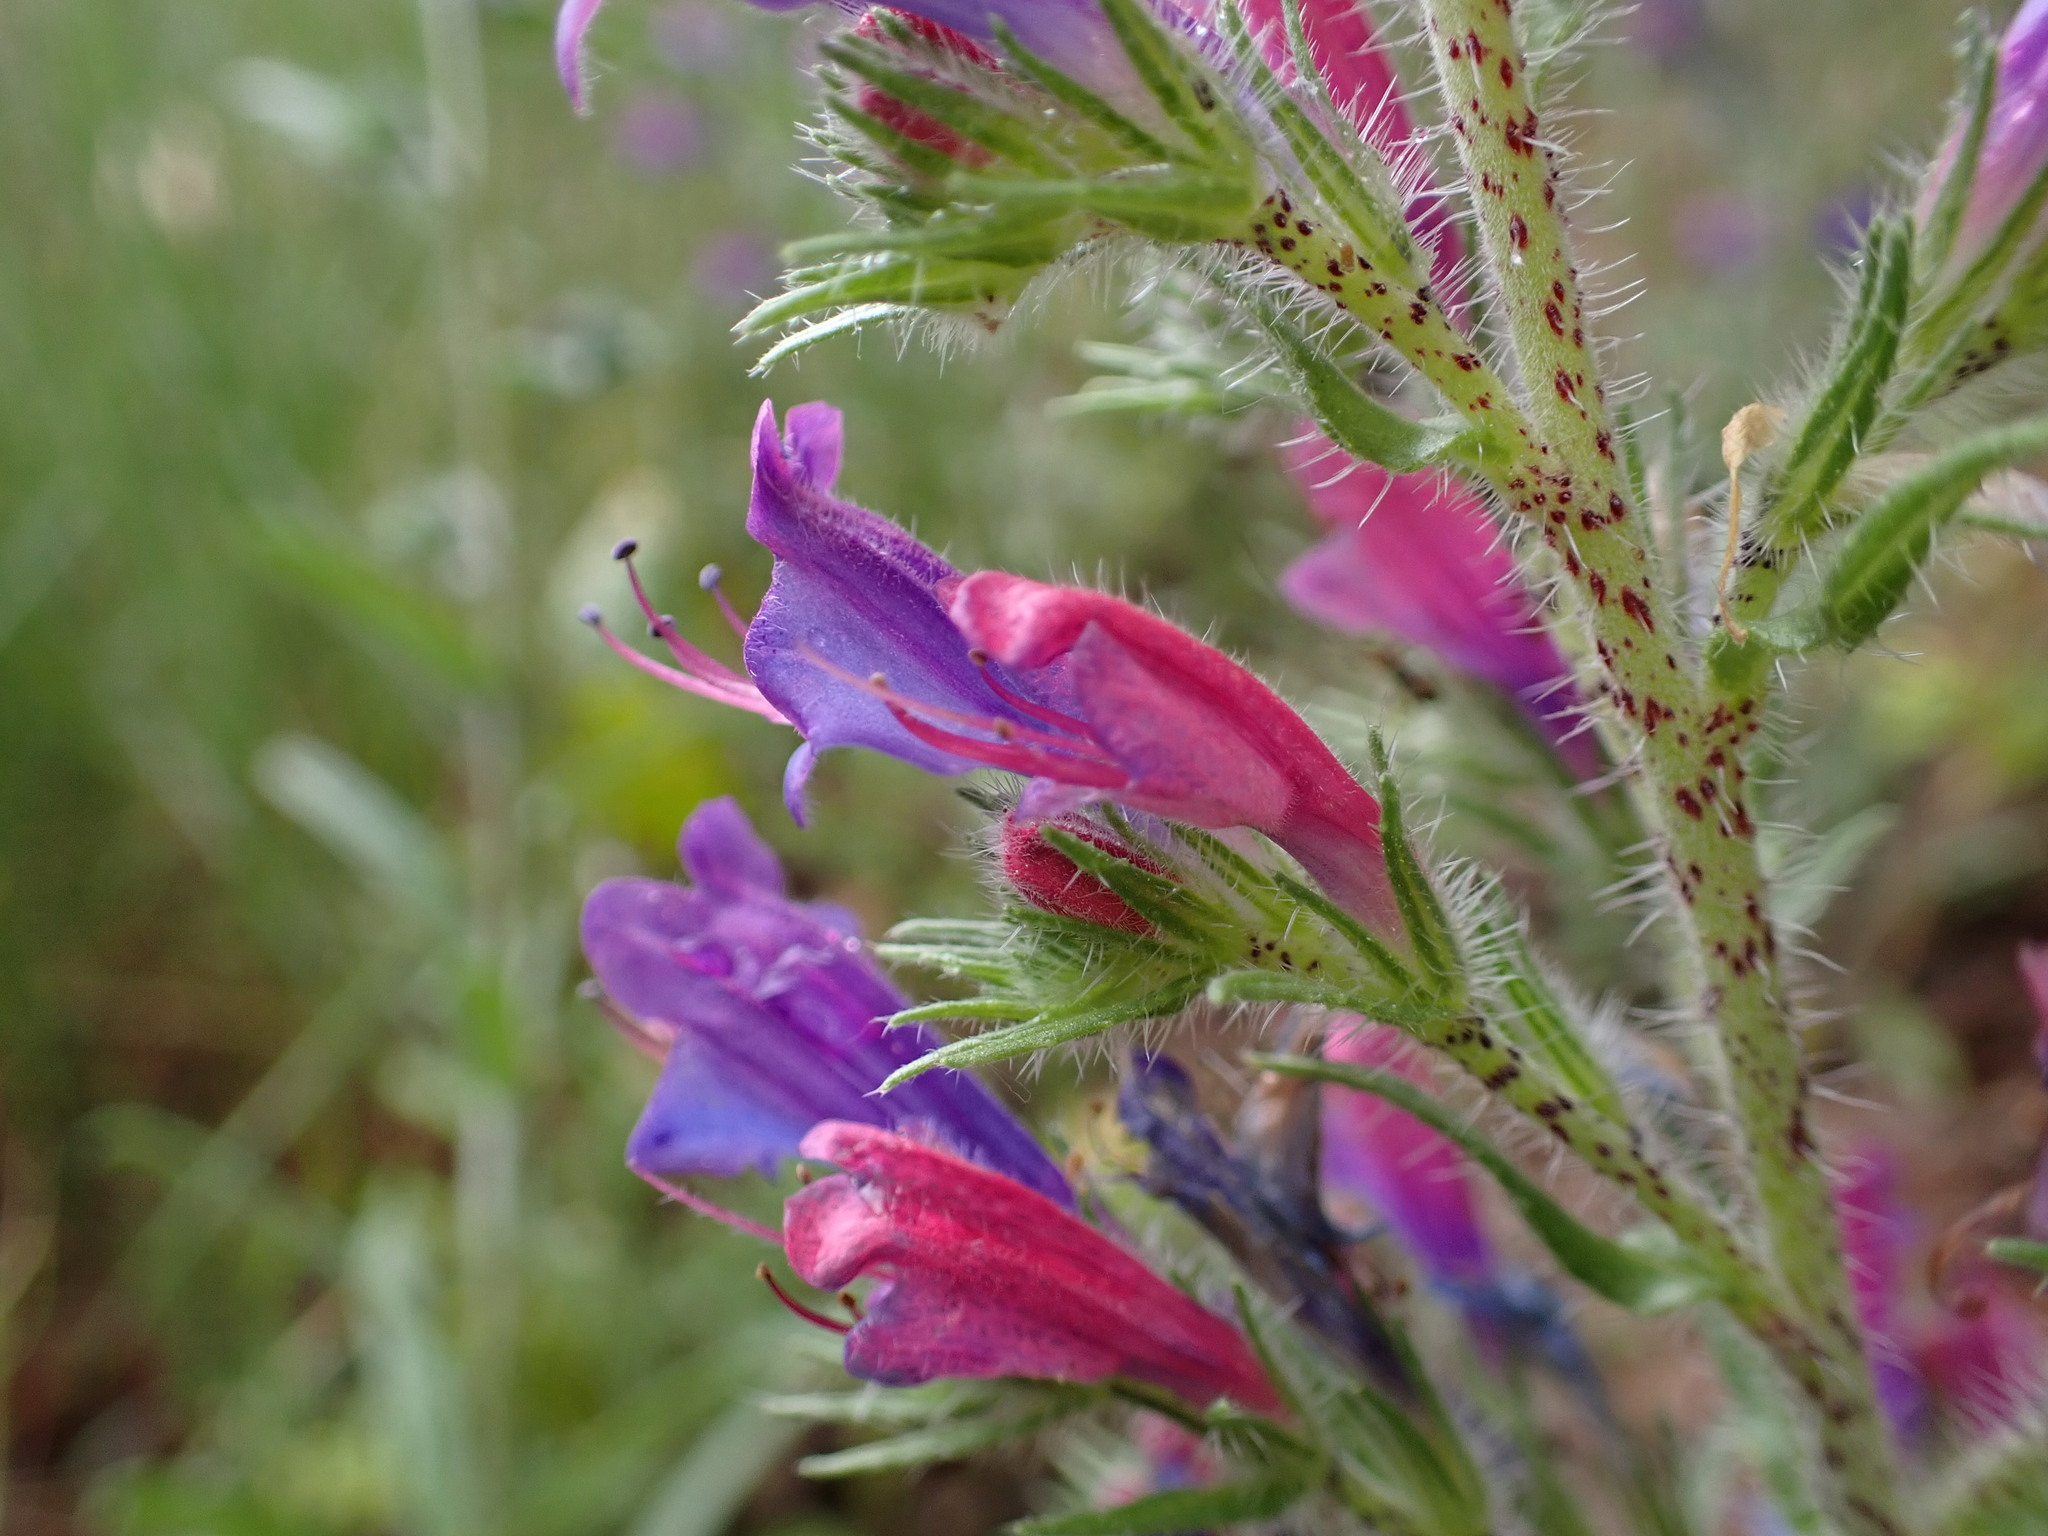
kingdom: Plantae
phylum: Tracheophyta
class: Magnoliopsida
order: Boraginales
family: Boraginaceae
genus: Echium
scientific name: Echium vulgare
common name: Common viper's bugloss
